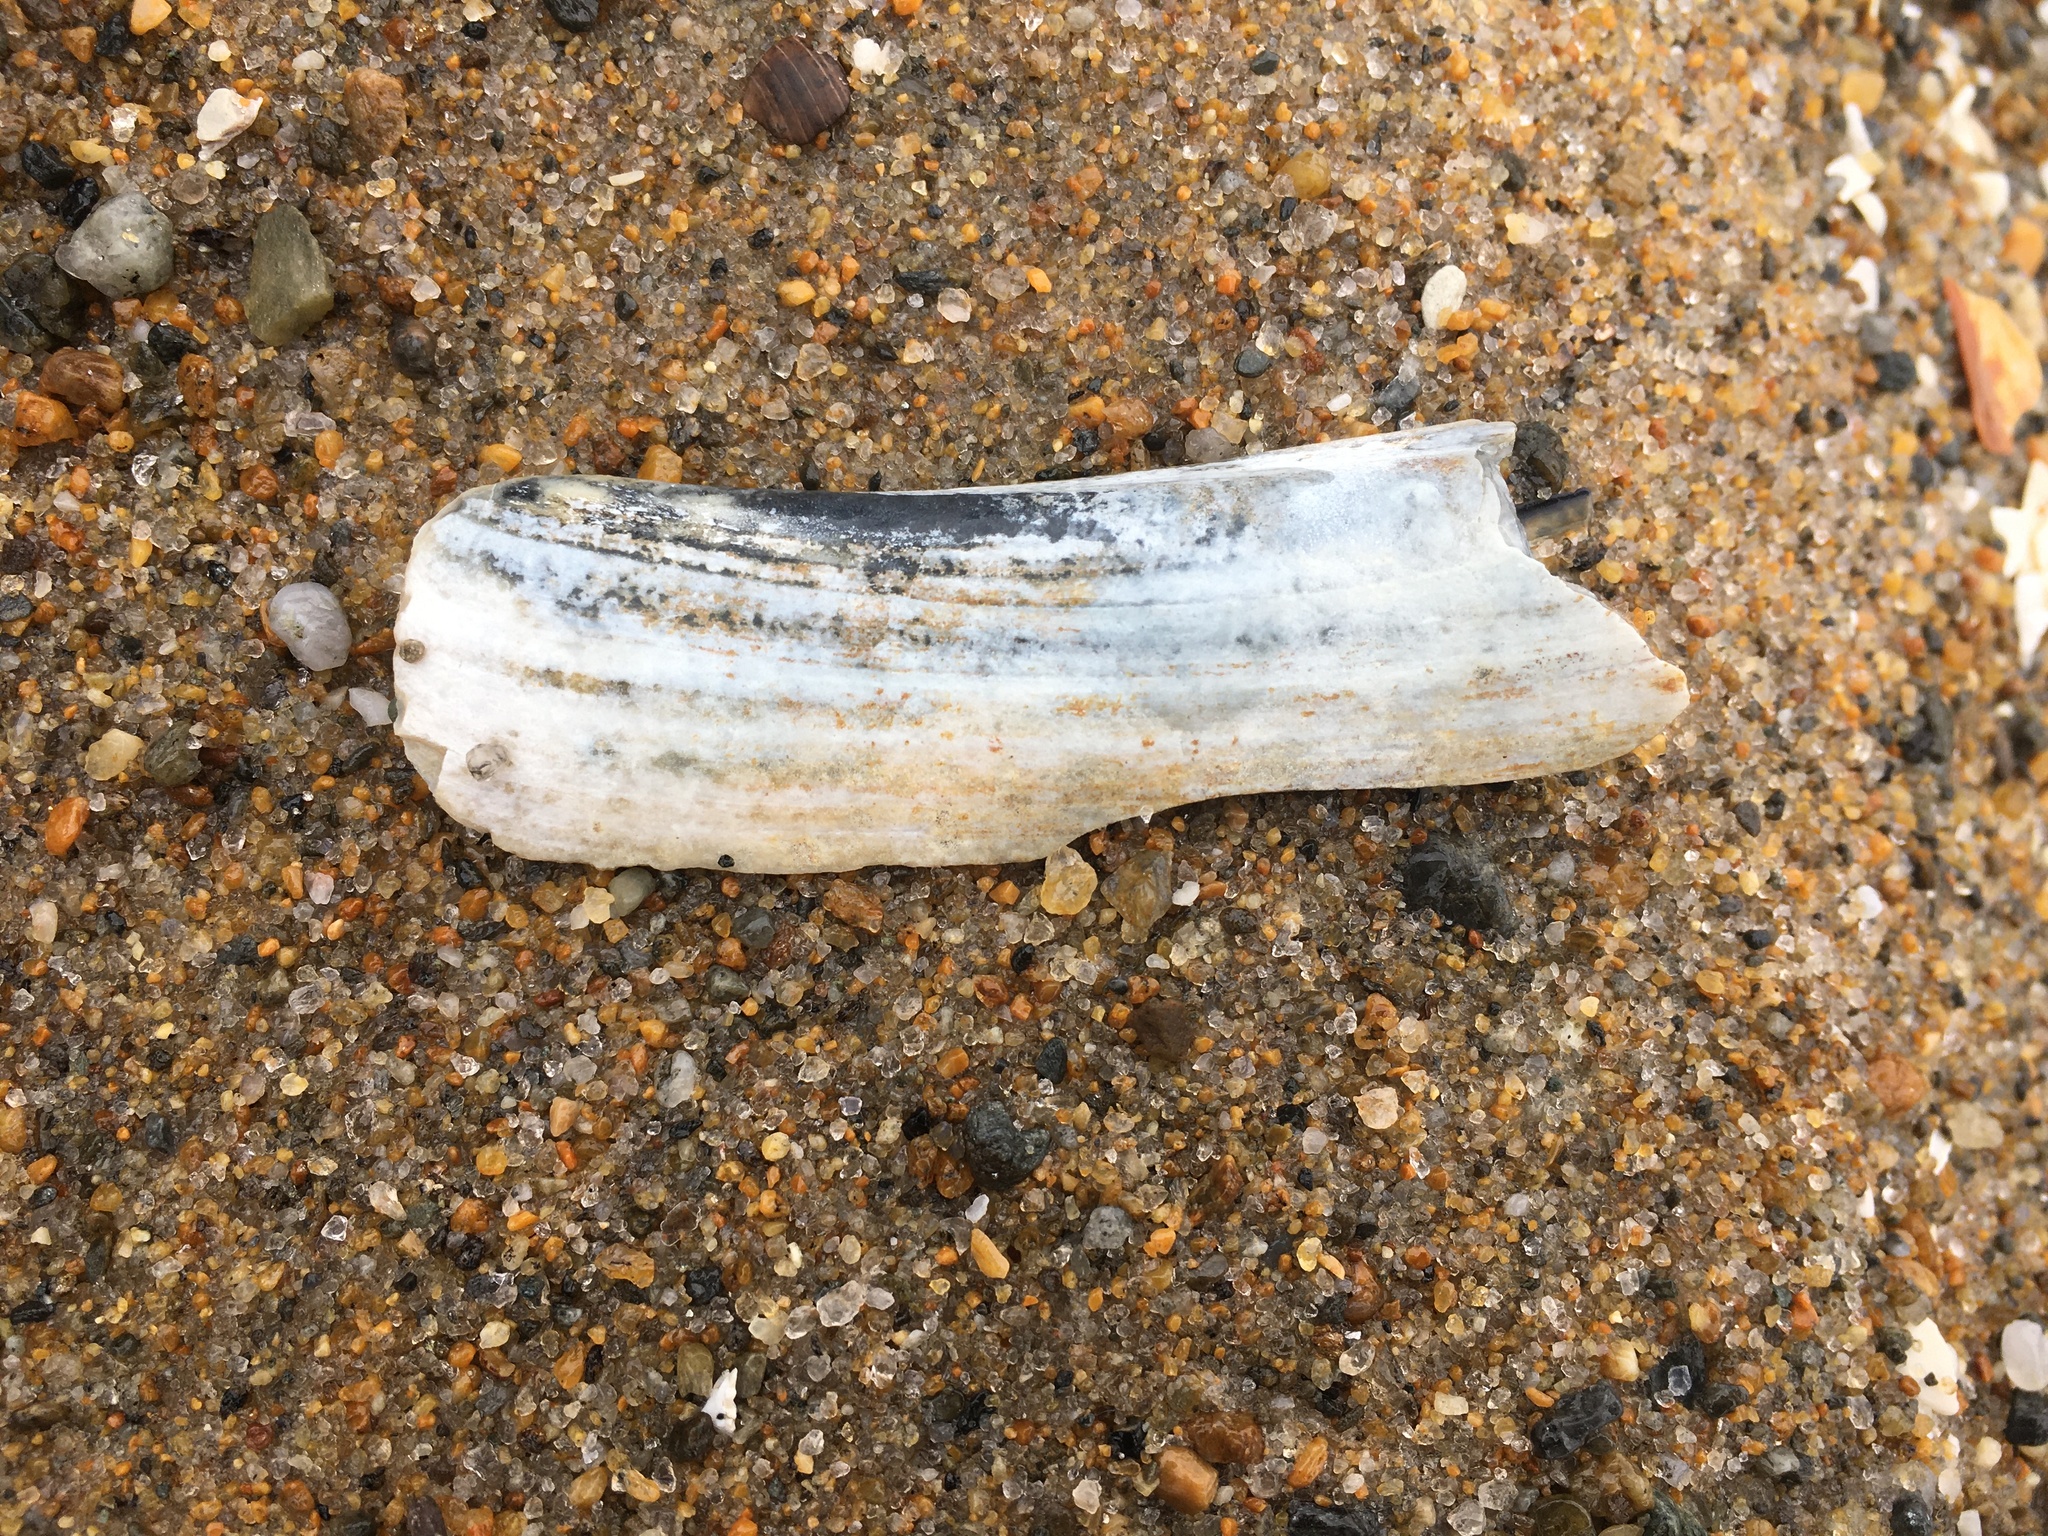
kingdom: Animalia
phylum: Mollusca
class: Bivalvia
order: Adapedonta
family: Pharidae
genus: Ensis
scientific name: Ensis leei
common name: American jack knife clam
